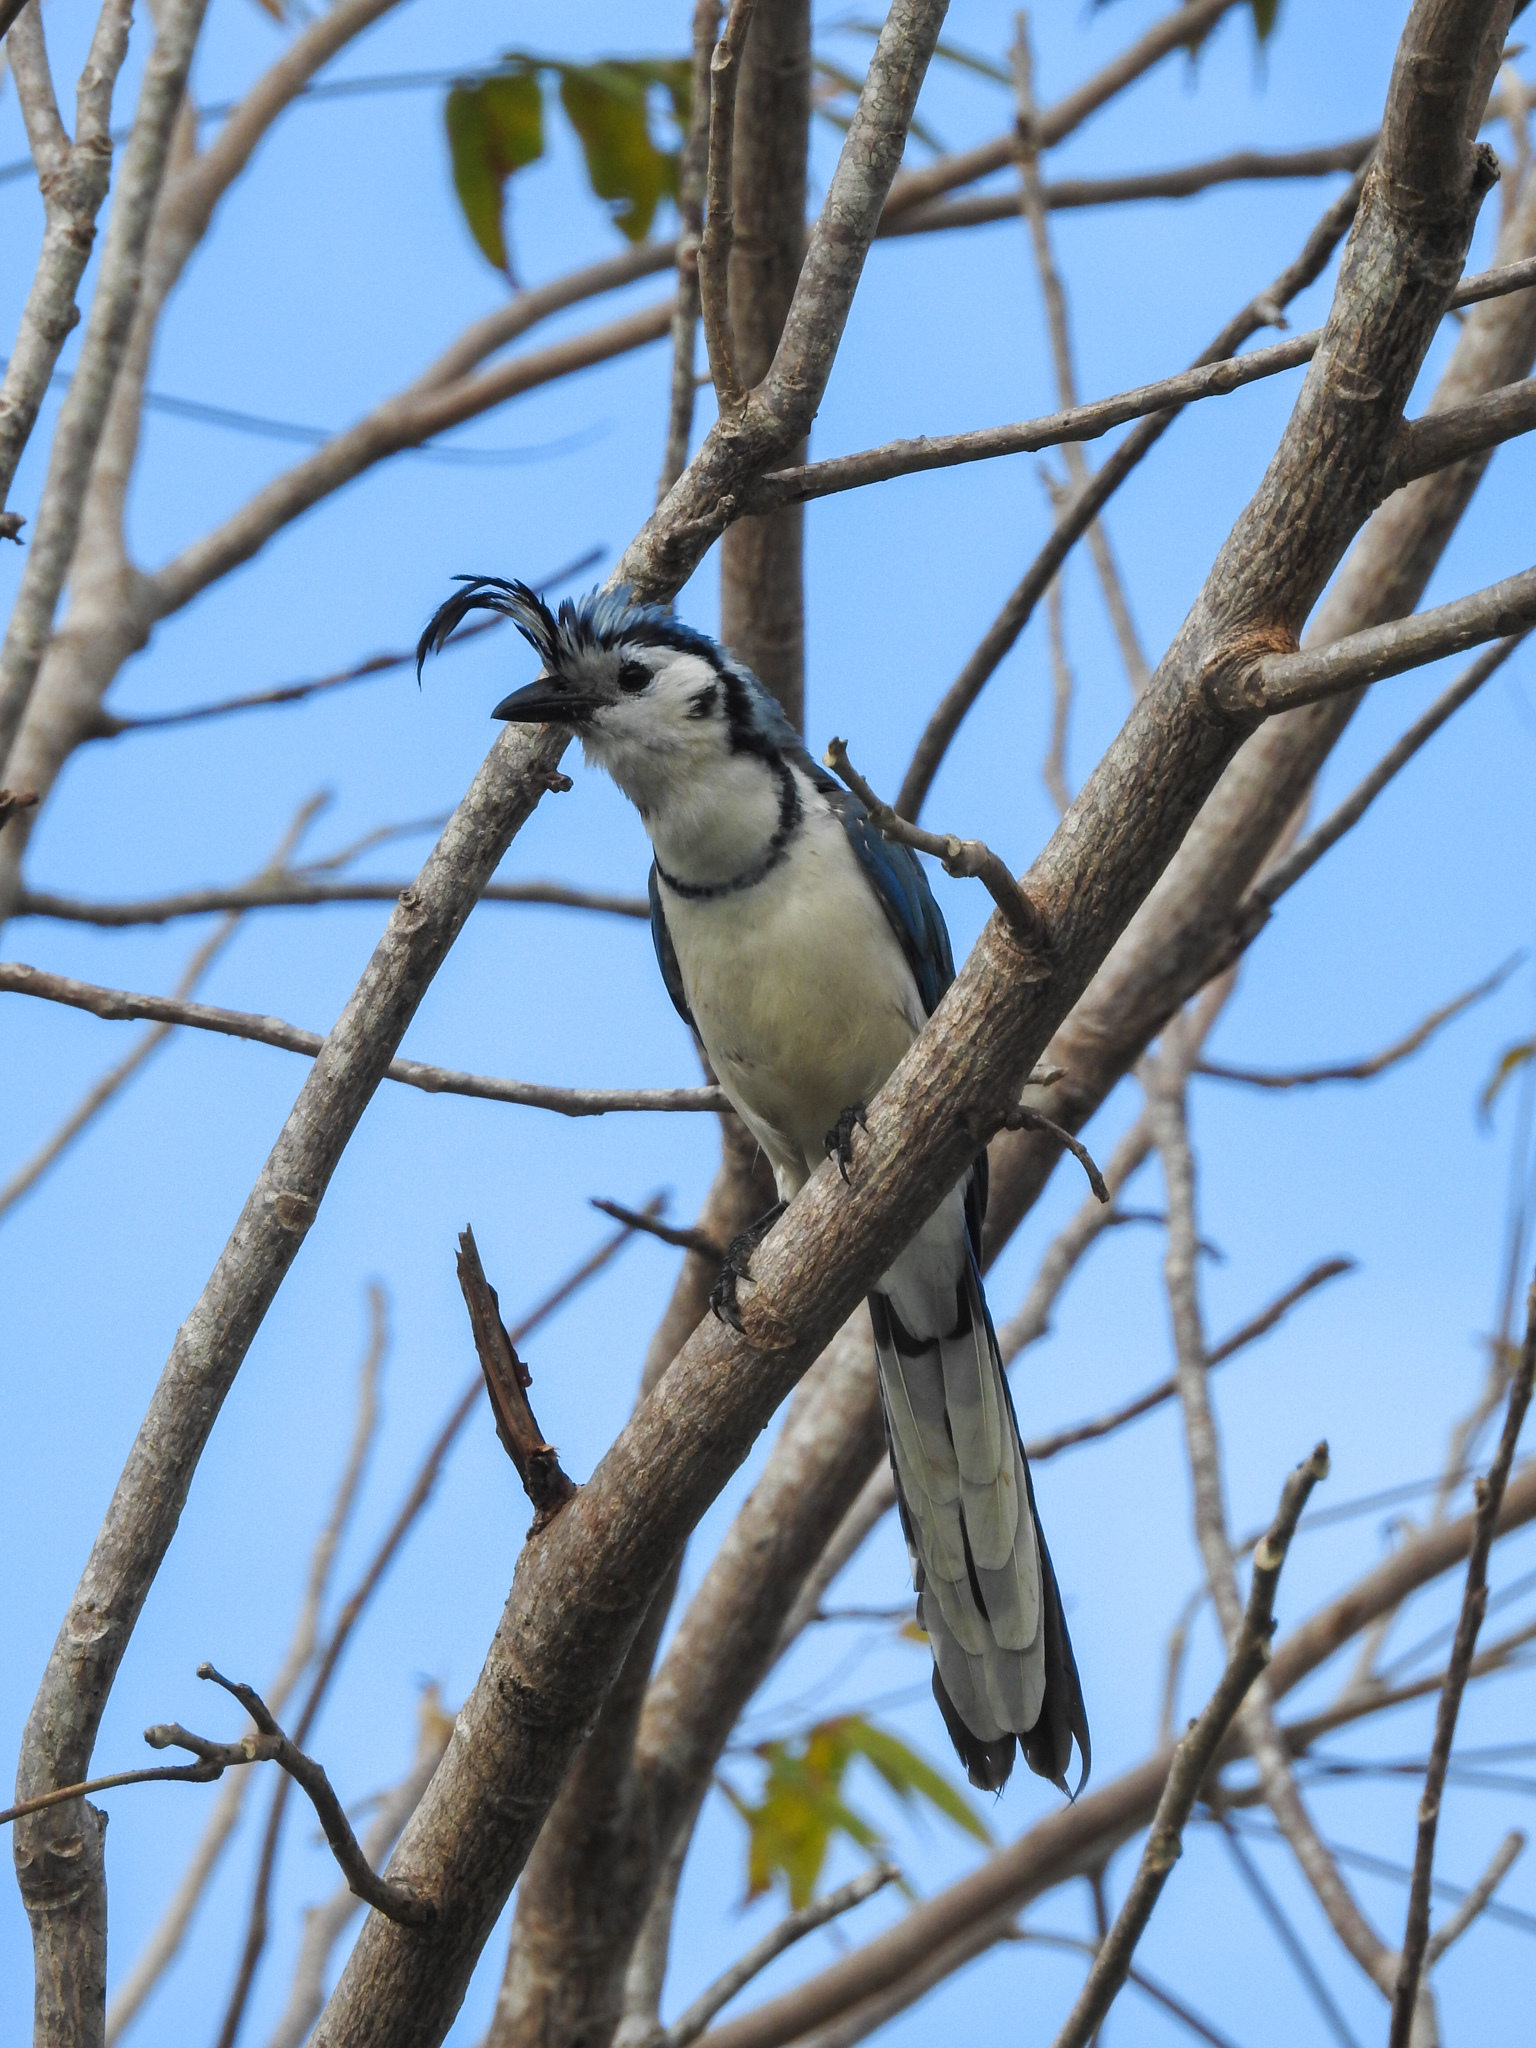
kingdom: Animalia
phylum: Chordata
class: Aves
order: Passeriformes
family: Corvidae
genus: Calocitta
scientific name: Calocitta formosa
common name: White-throated magpie-jay
